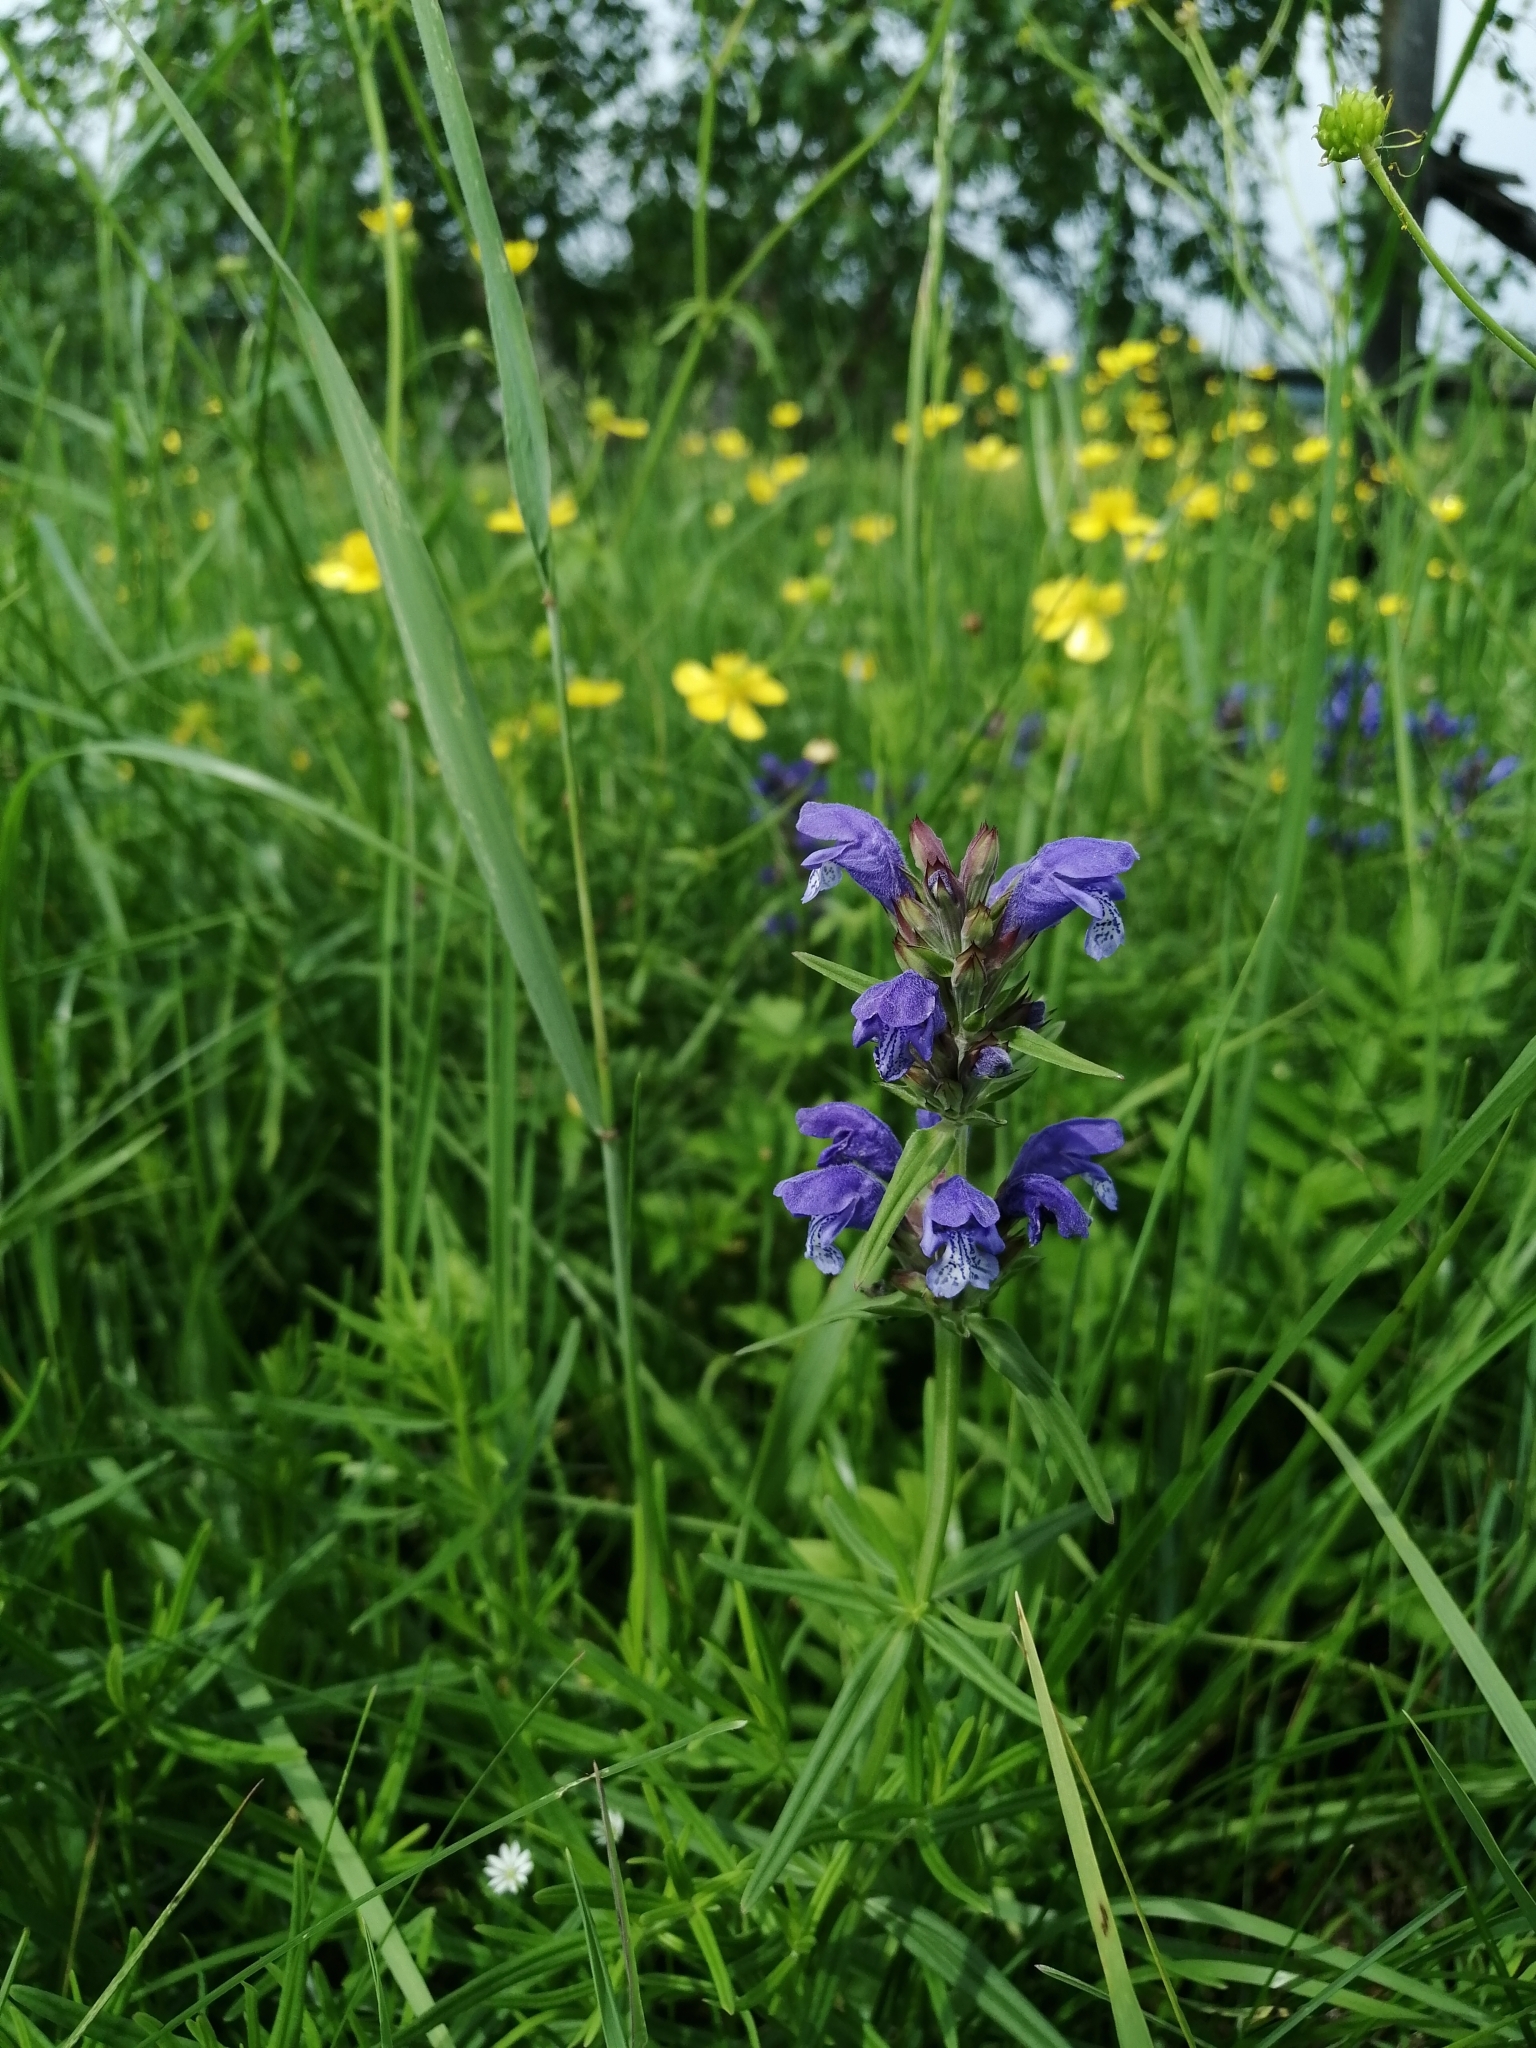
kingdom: Plantae
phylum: Tracheophyta
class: Magnoliopsida
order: Lamiales
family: Lamiaceae
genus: Dracocephalum
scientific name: Dracocephalum ruyschiana
